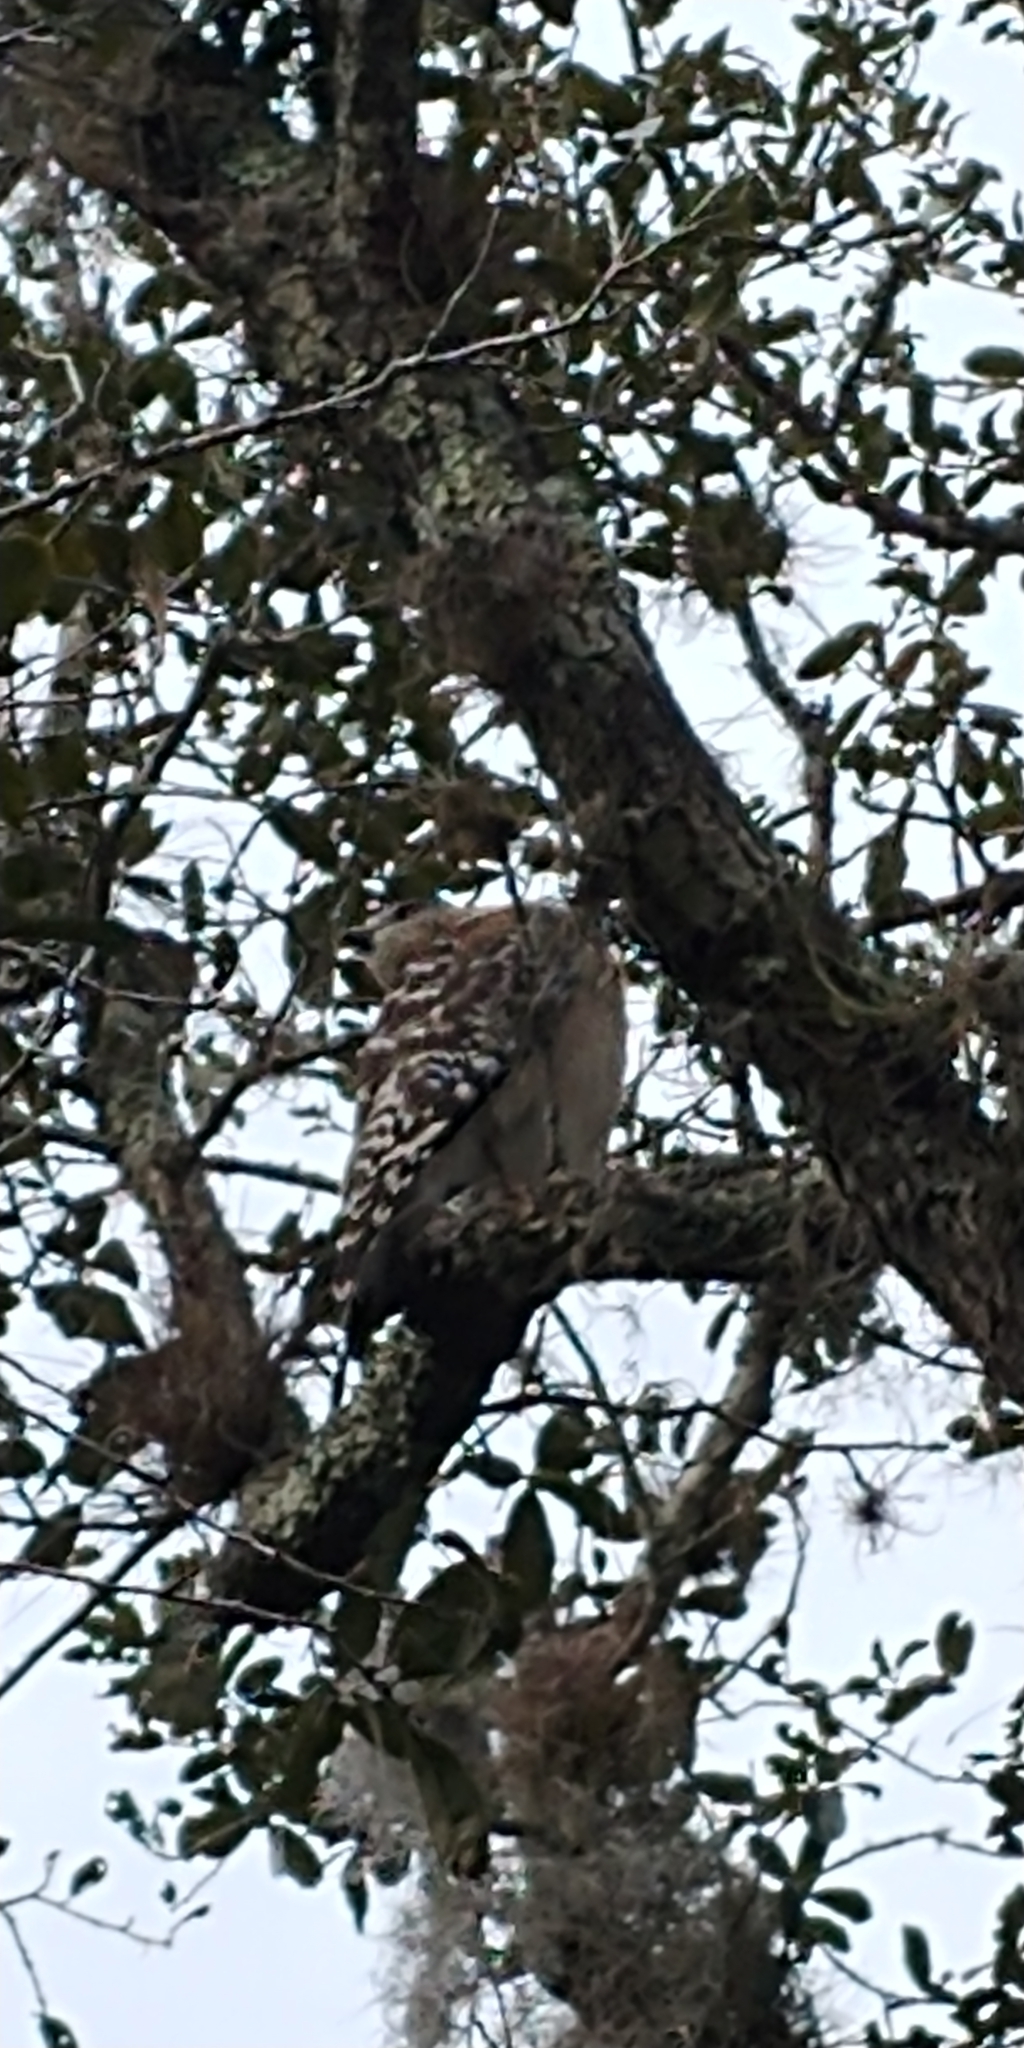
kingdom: Animalia
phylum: Chordata
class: Aves
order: Accipitriformes
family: Accipitridae
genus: Buteo
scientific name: Buteo lineatus
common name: Red-shouldered hawk
